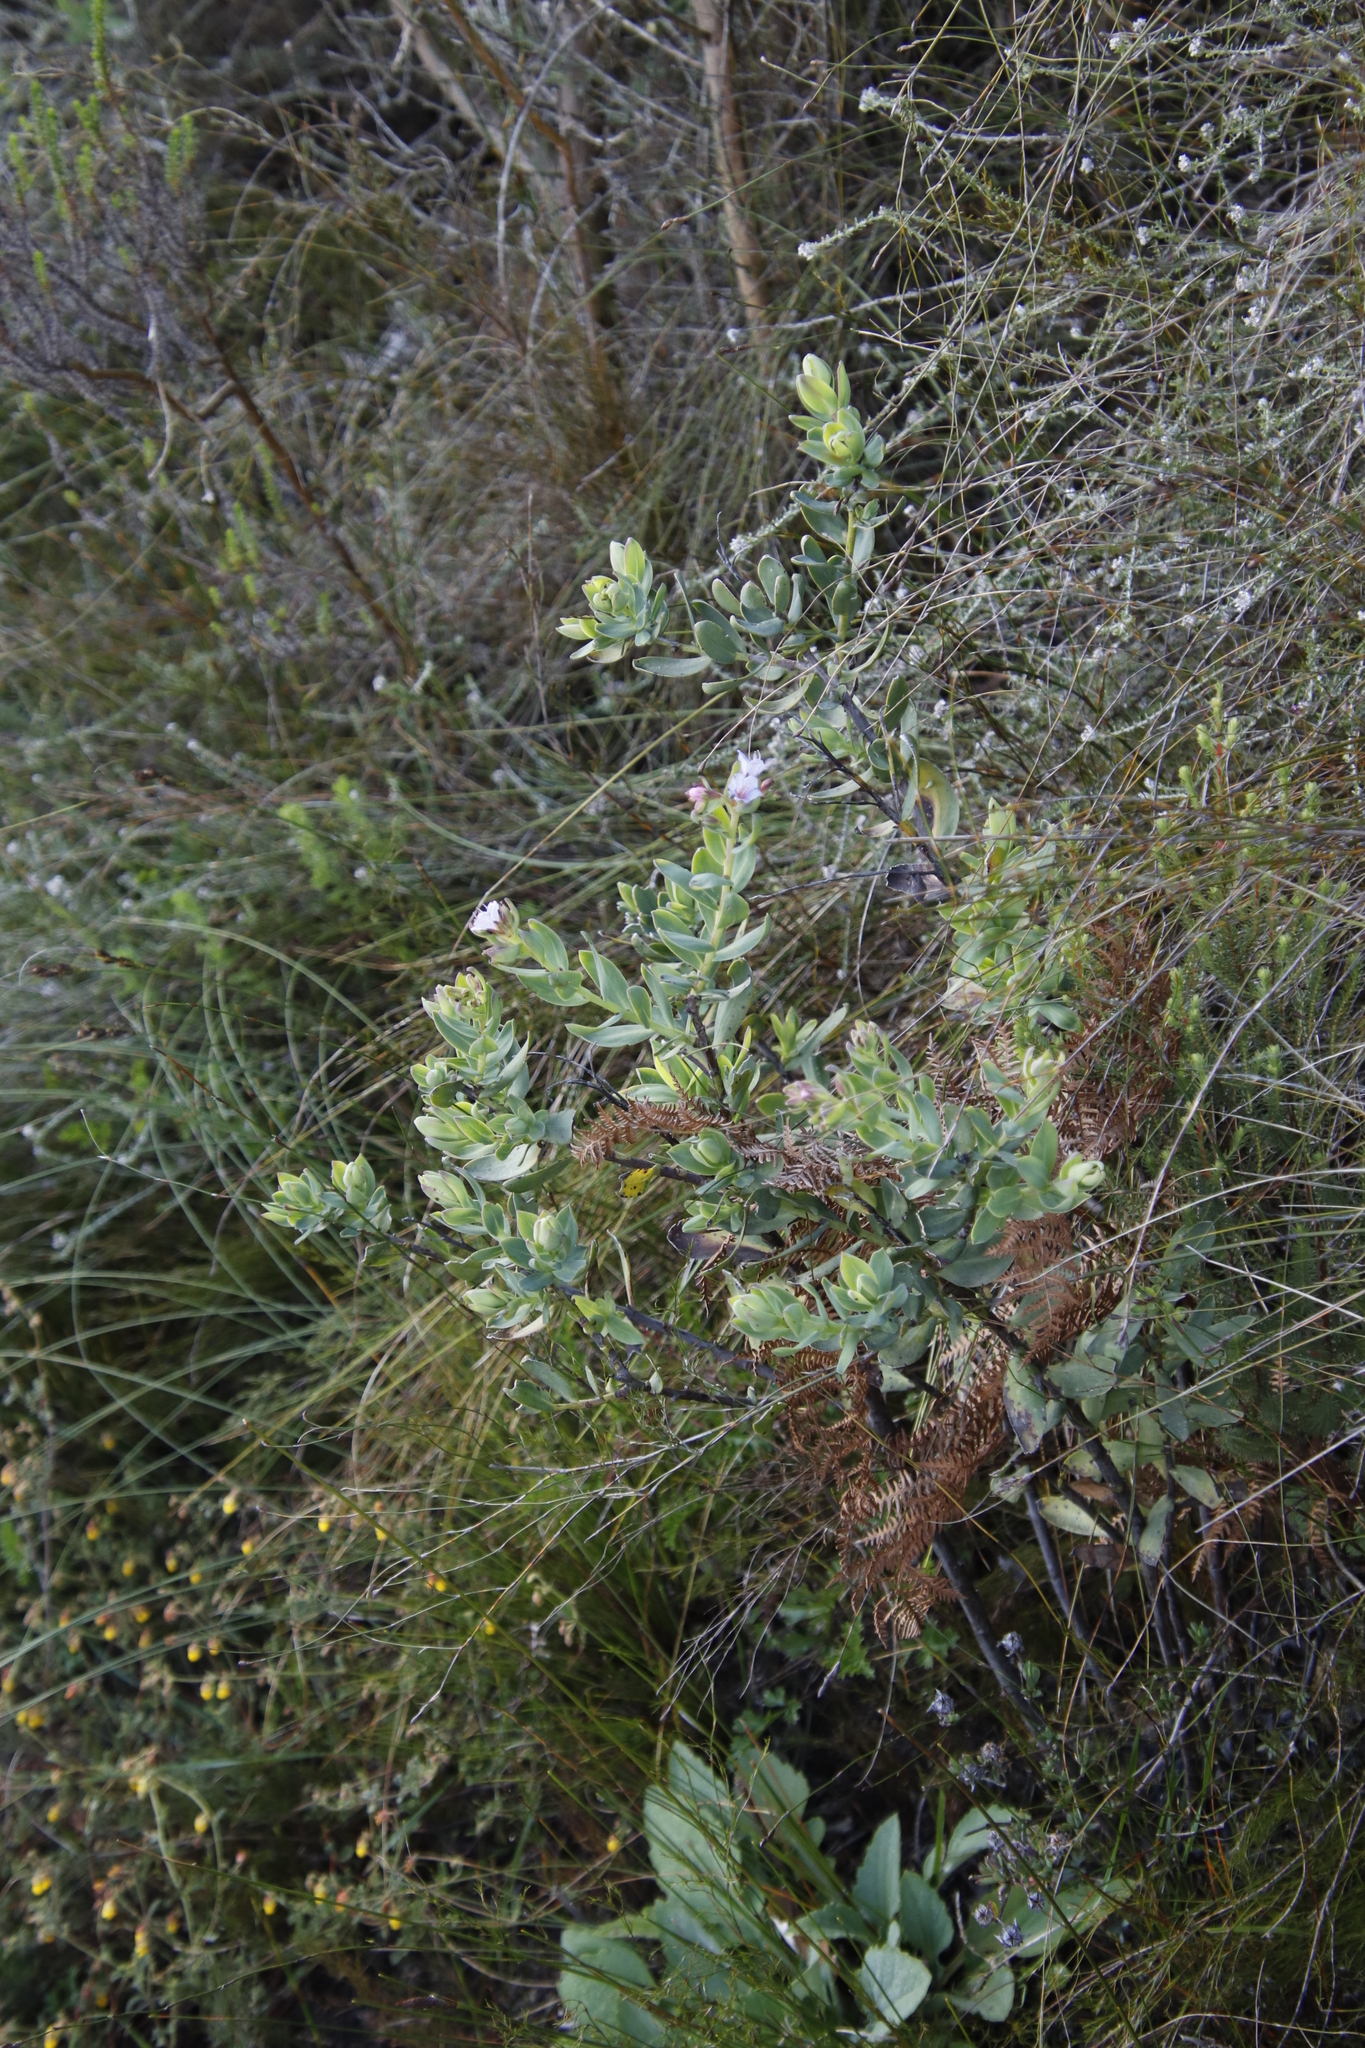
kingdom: Plantae
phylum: Tracheophyta
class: Magnoliopsida
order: Boraginales
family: Boraginaceae
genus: Lobostemon
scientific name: Lobostemon glaucophyllus
